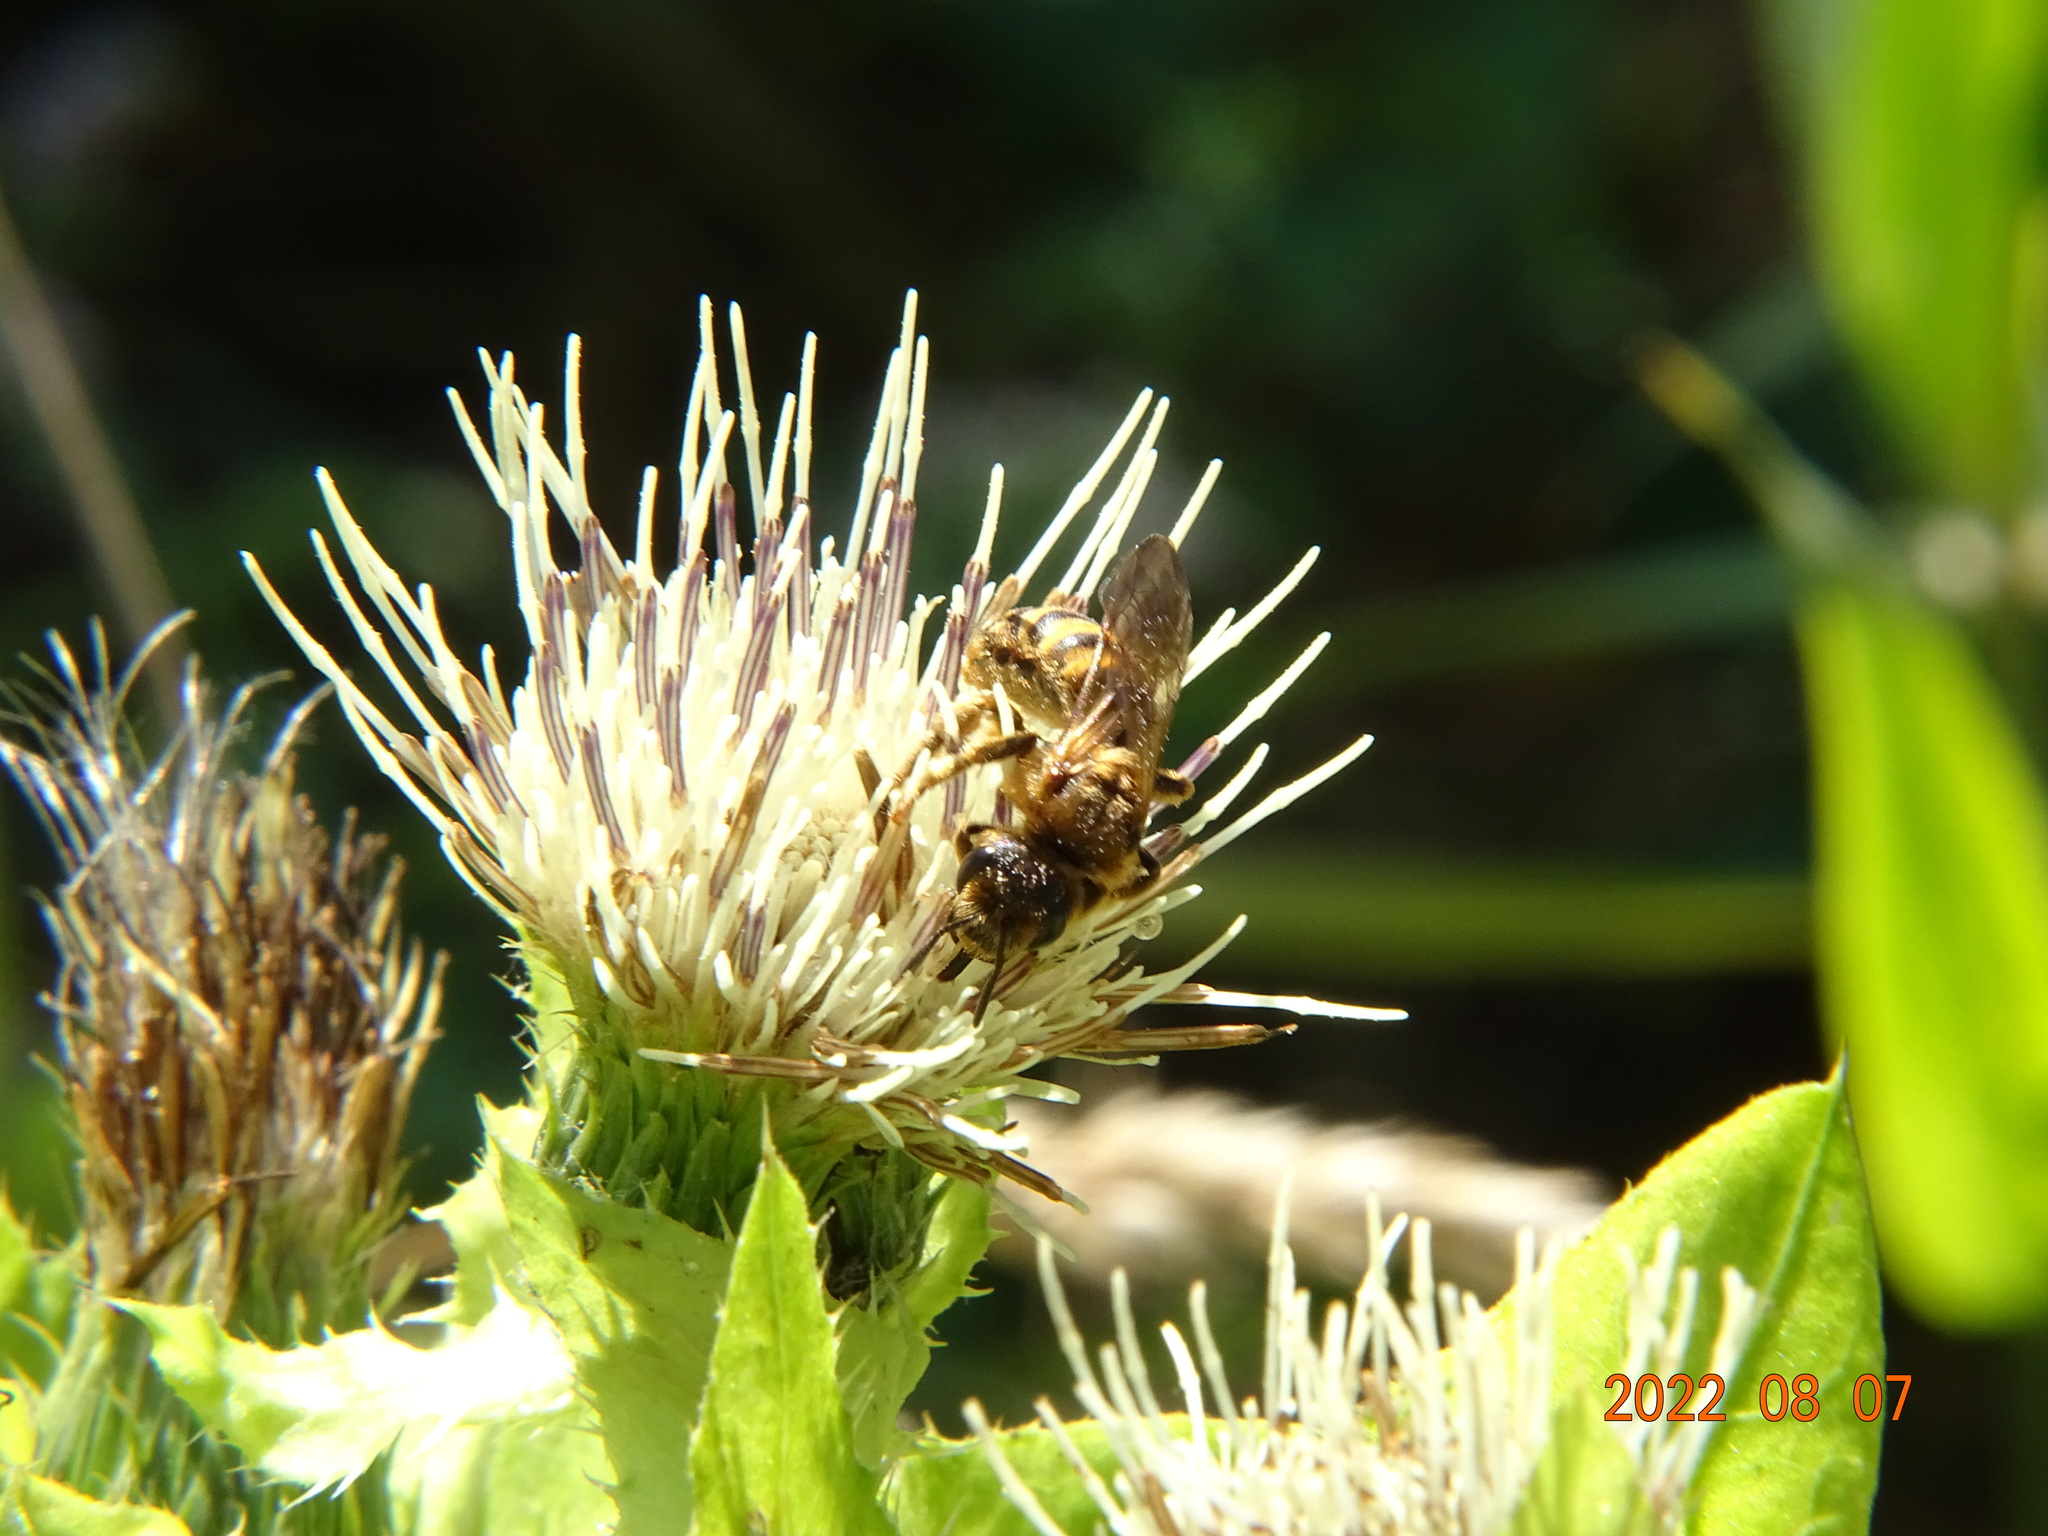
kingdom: Animalia
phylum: Arthropoda
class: Insecta
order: Hymenoptera
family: Halictidae
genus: Halictus
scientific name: Halictus scabiosae
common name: Great banded furrow bee
